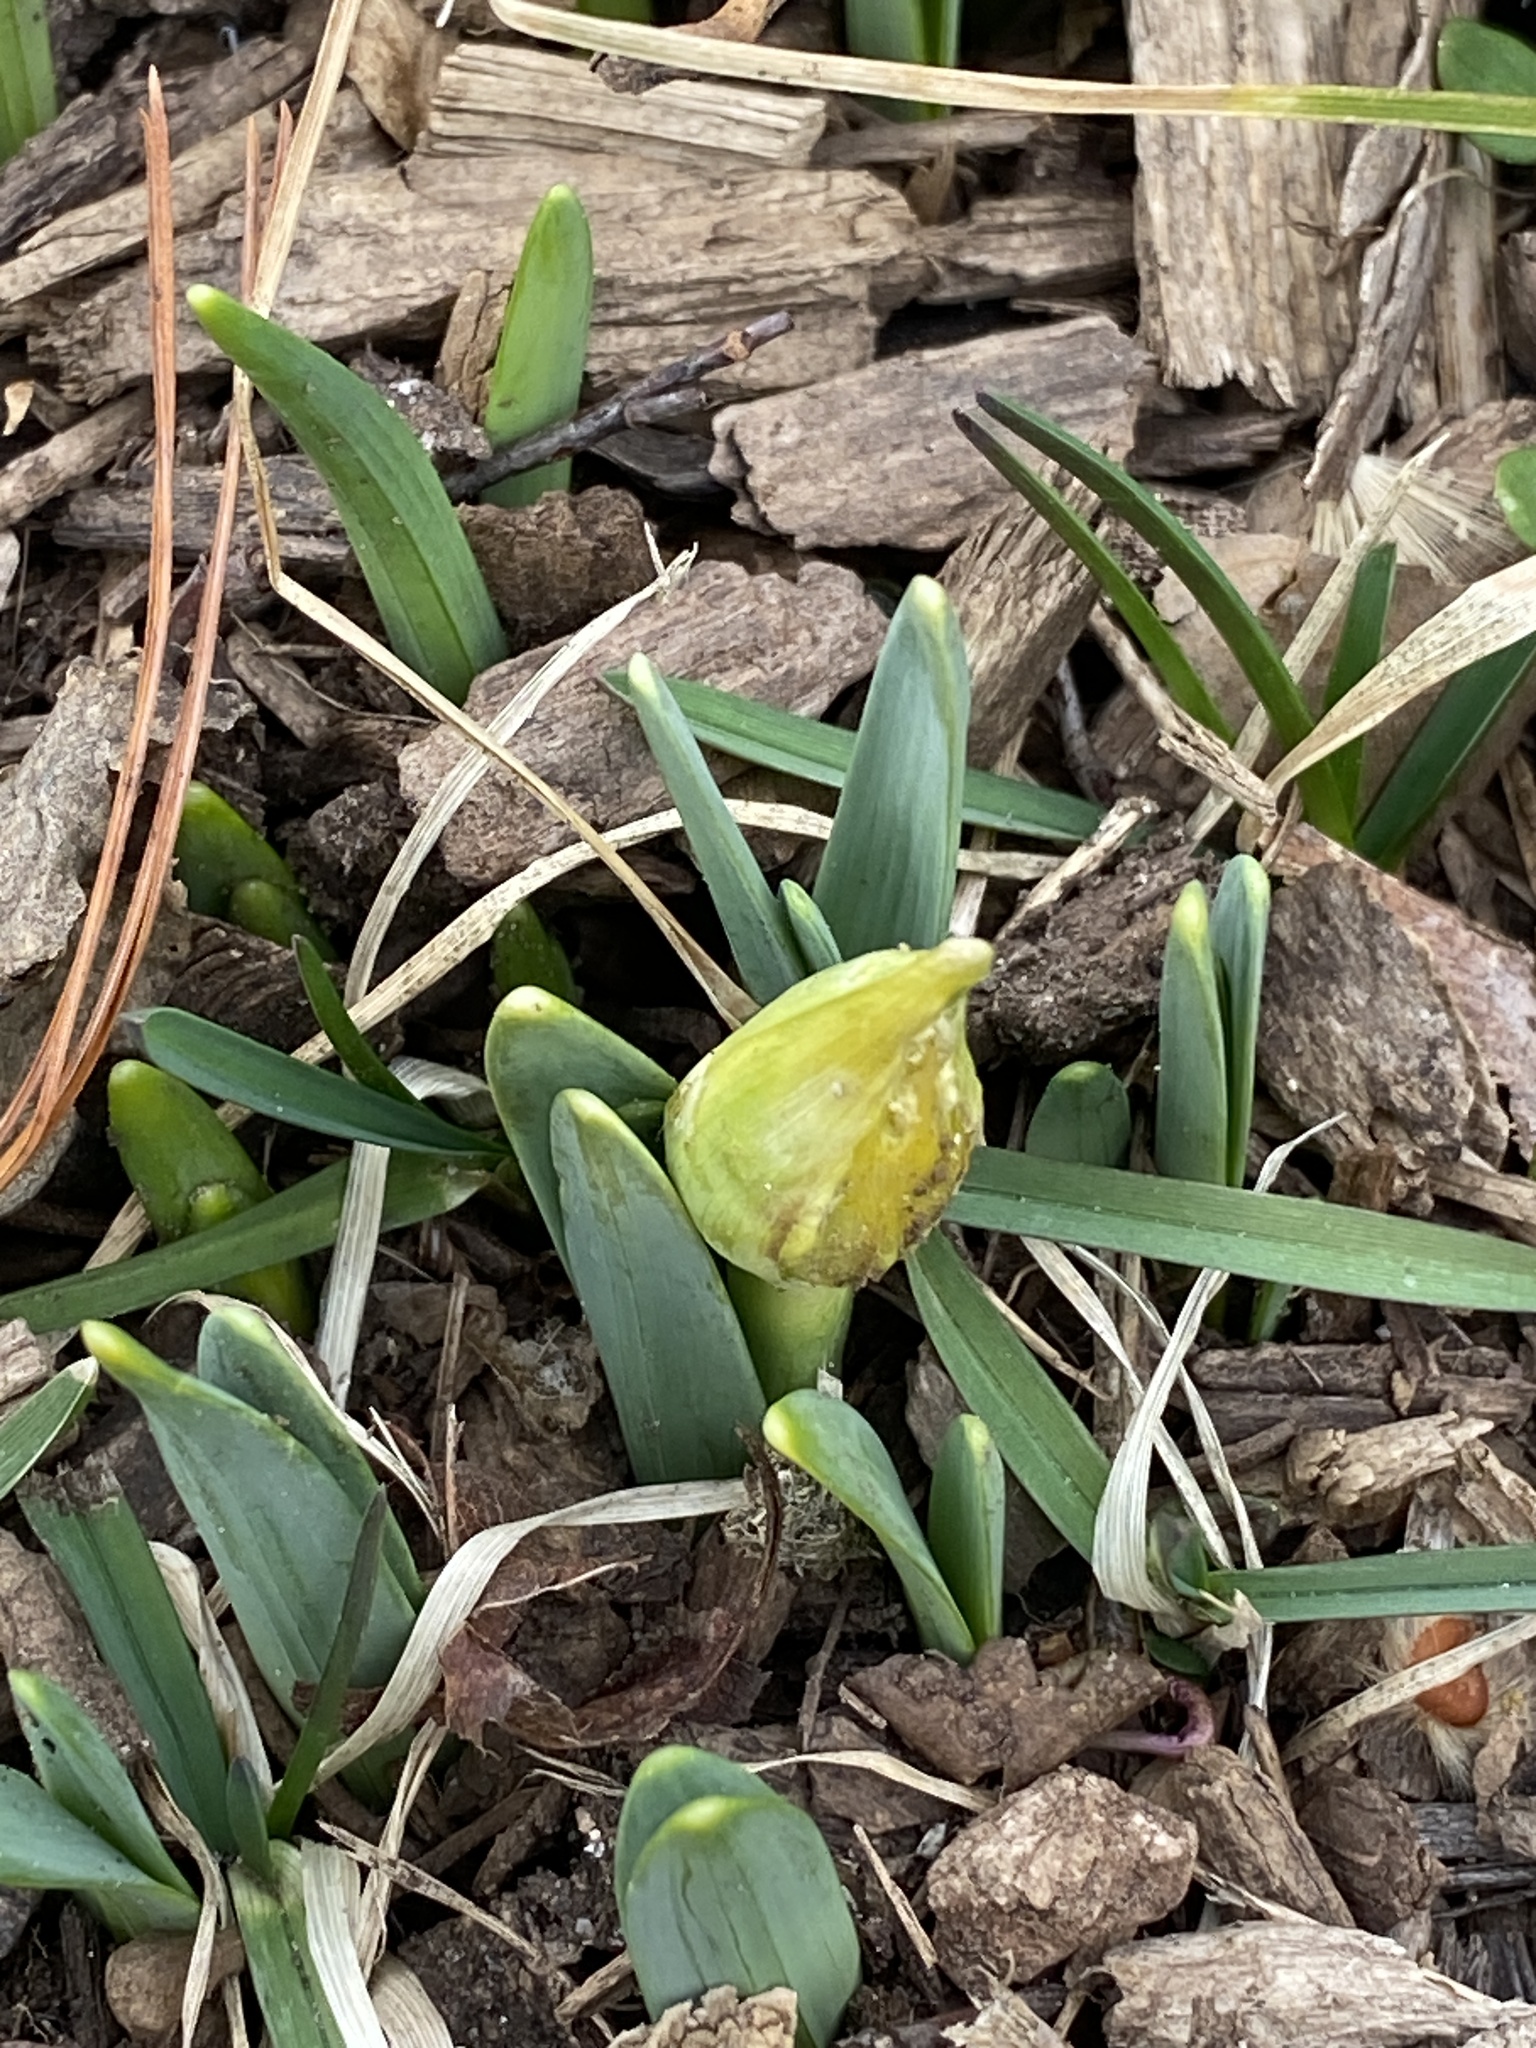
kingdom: Plantae
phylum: Tracheophyta
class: Liliopsida
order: Asparagales
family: Amaryllidaceae
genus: Narcissus
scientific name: Narcissus
